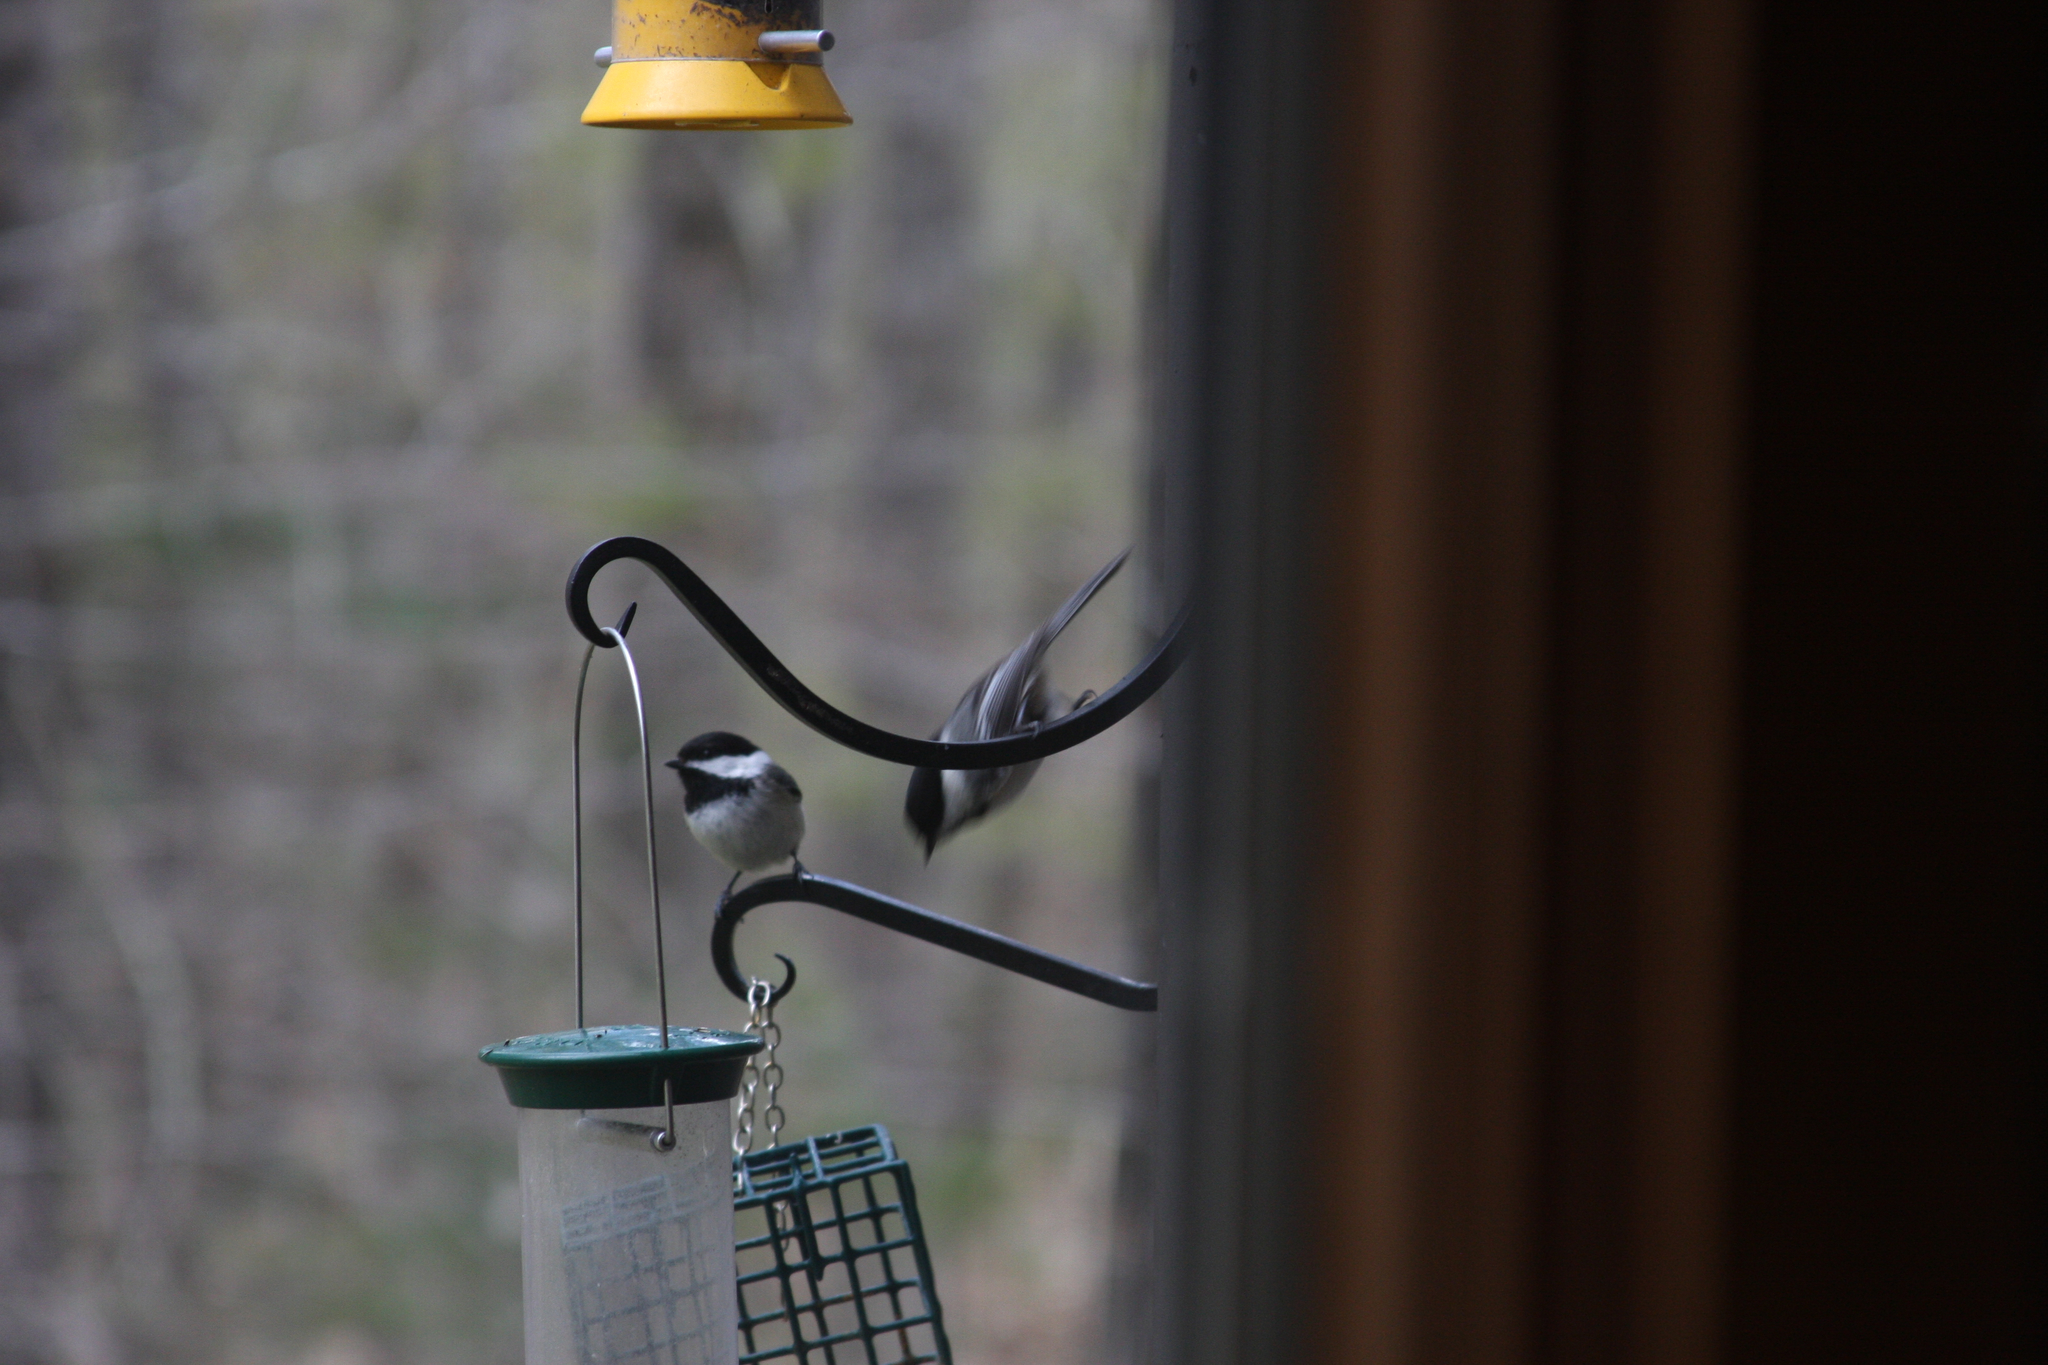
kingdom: Animalia
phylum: Chordata
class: Aves
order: Passeriformes
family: Paridae
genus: Poecile
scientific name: Poecile atricapillus
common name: Black-capped chickadee
